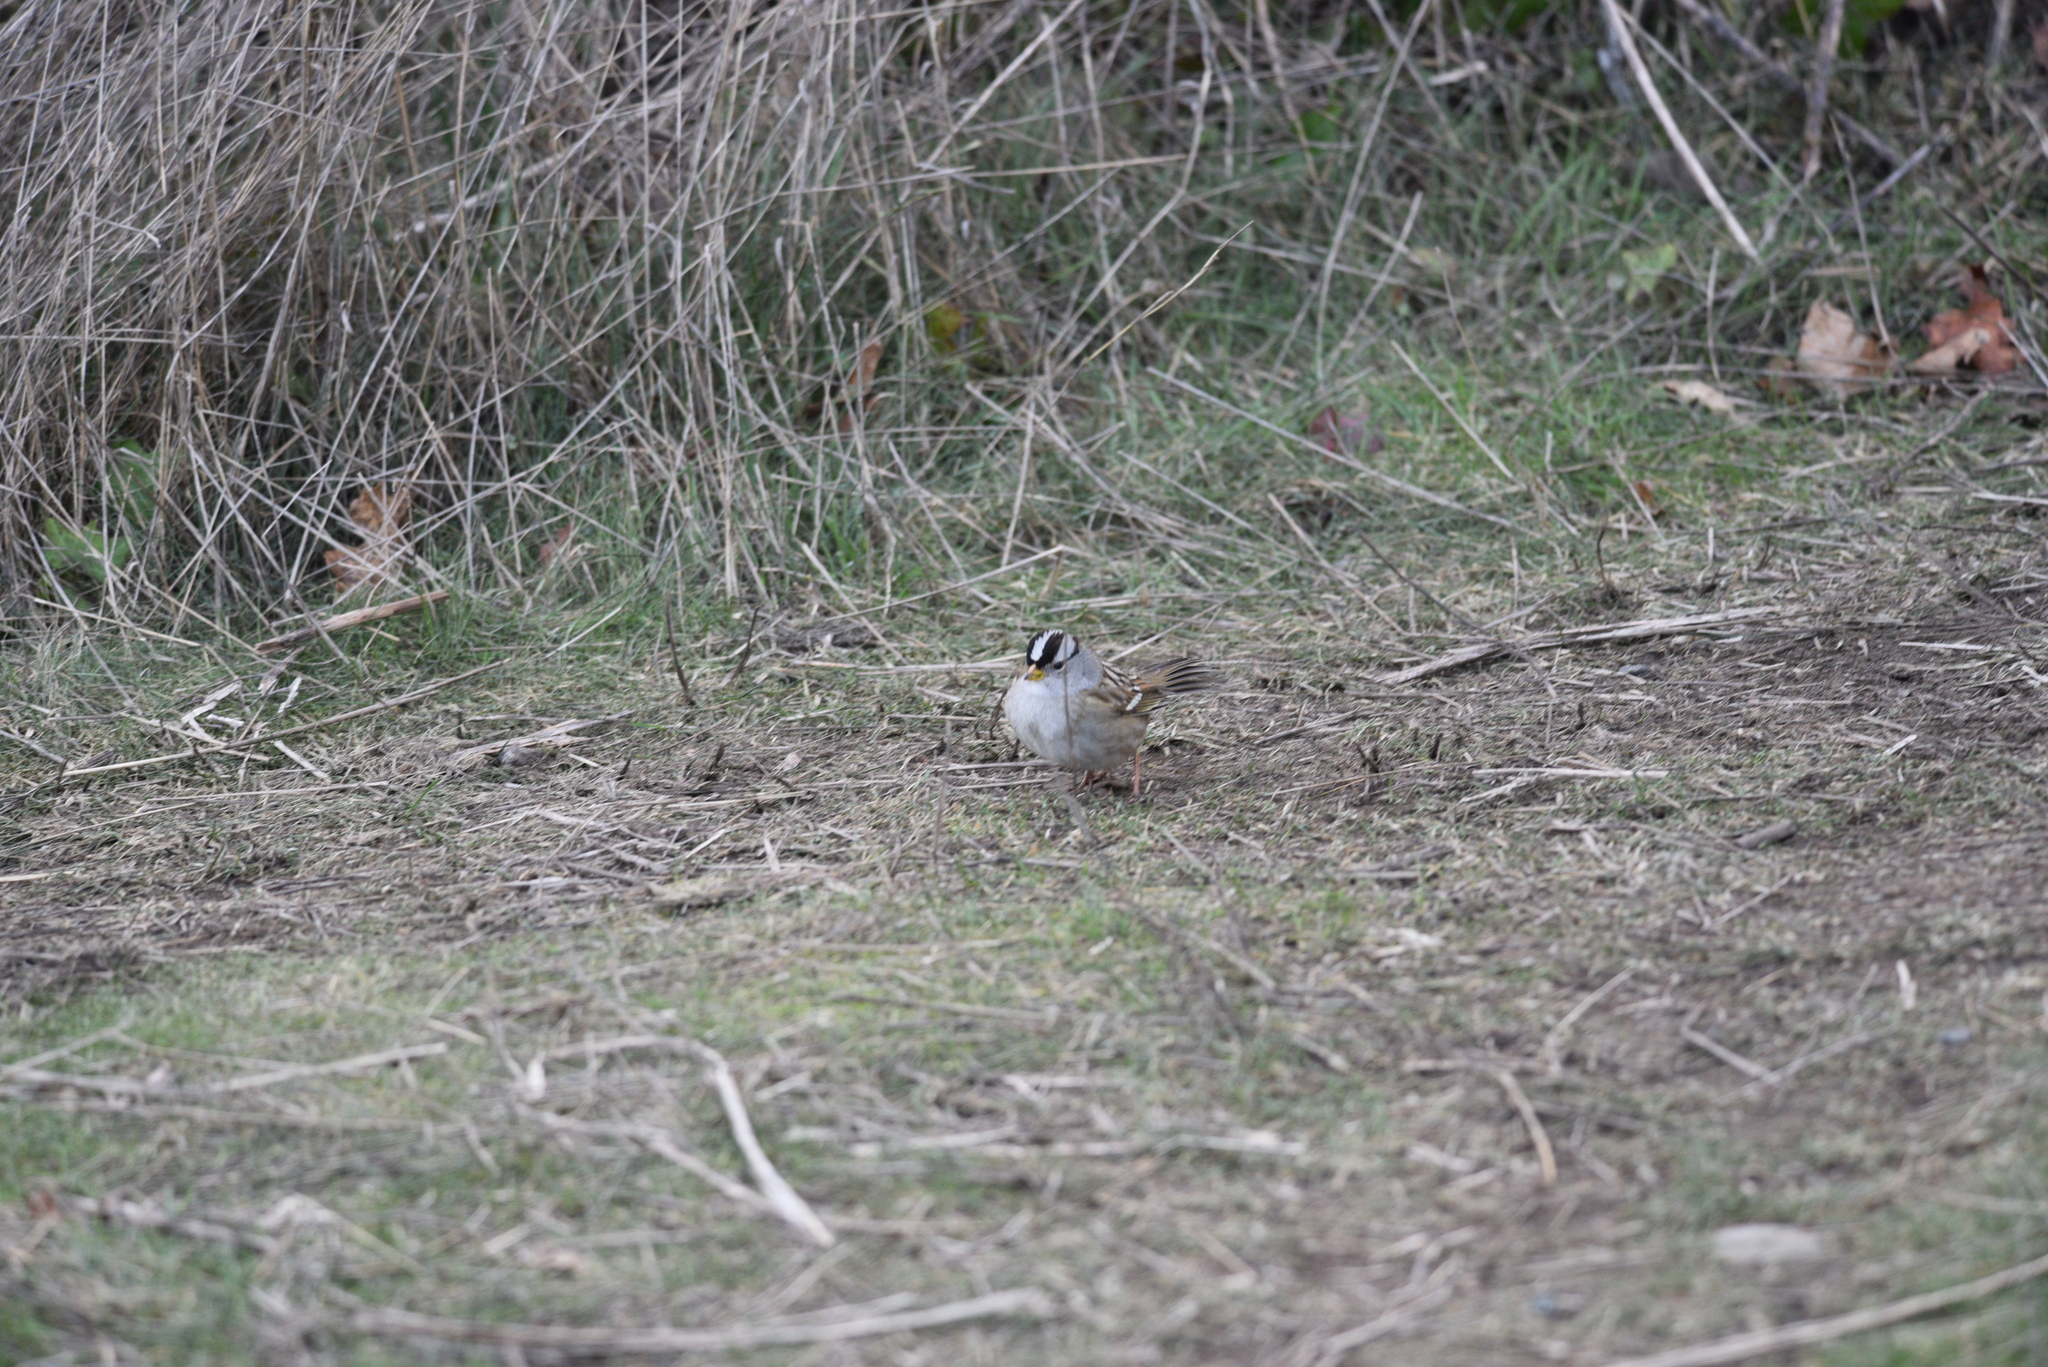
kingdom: Animalia
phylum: Chordata
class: Aves
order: Passeriformes
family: Passerellidae
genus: Zonotrichia
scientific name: Zonotrichia leucophrys
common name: White-crowned sparrow
